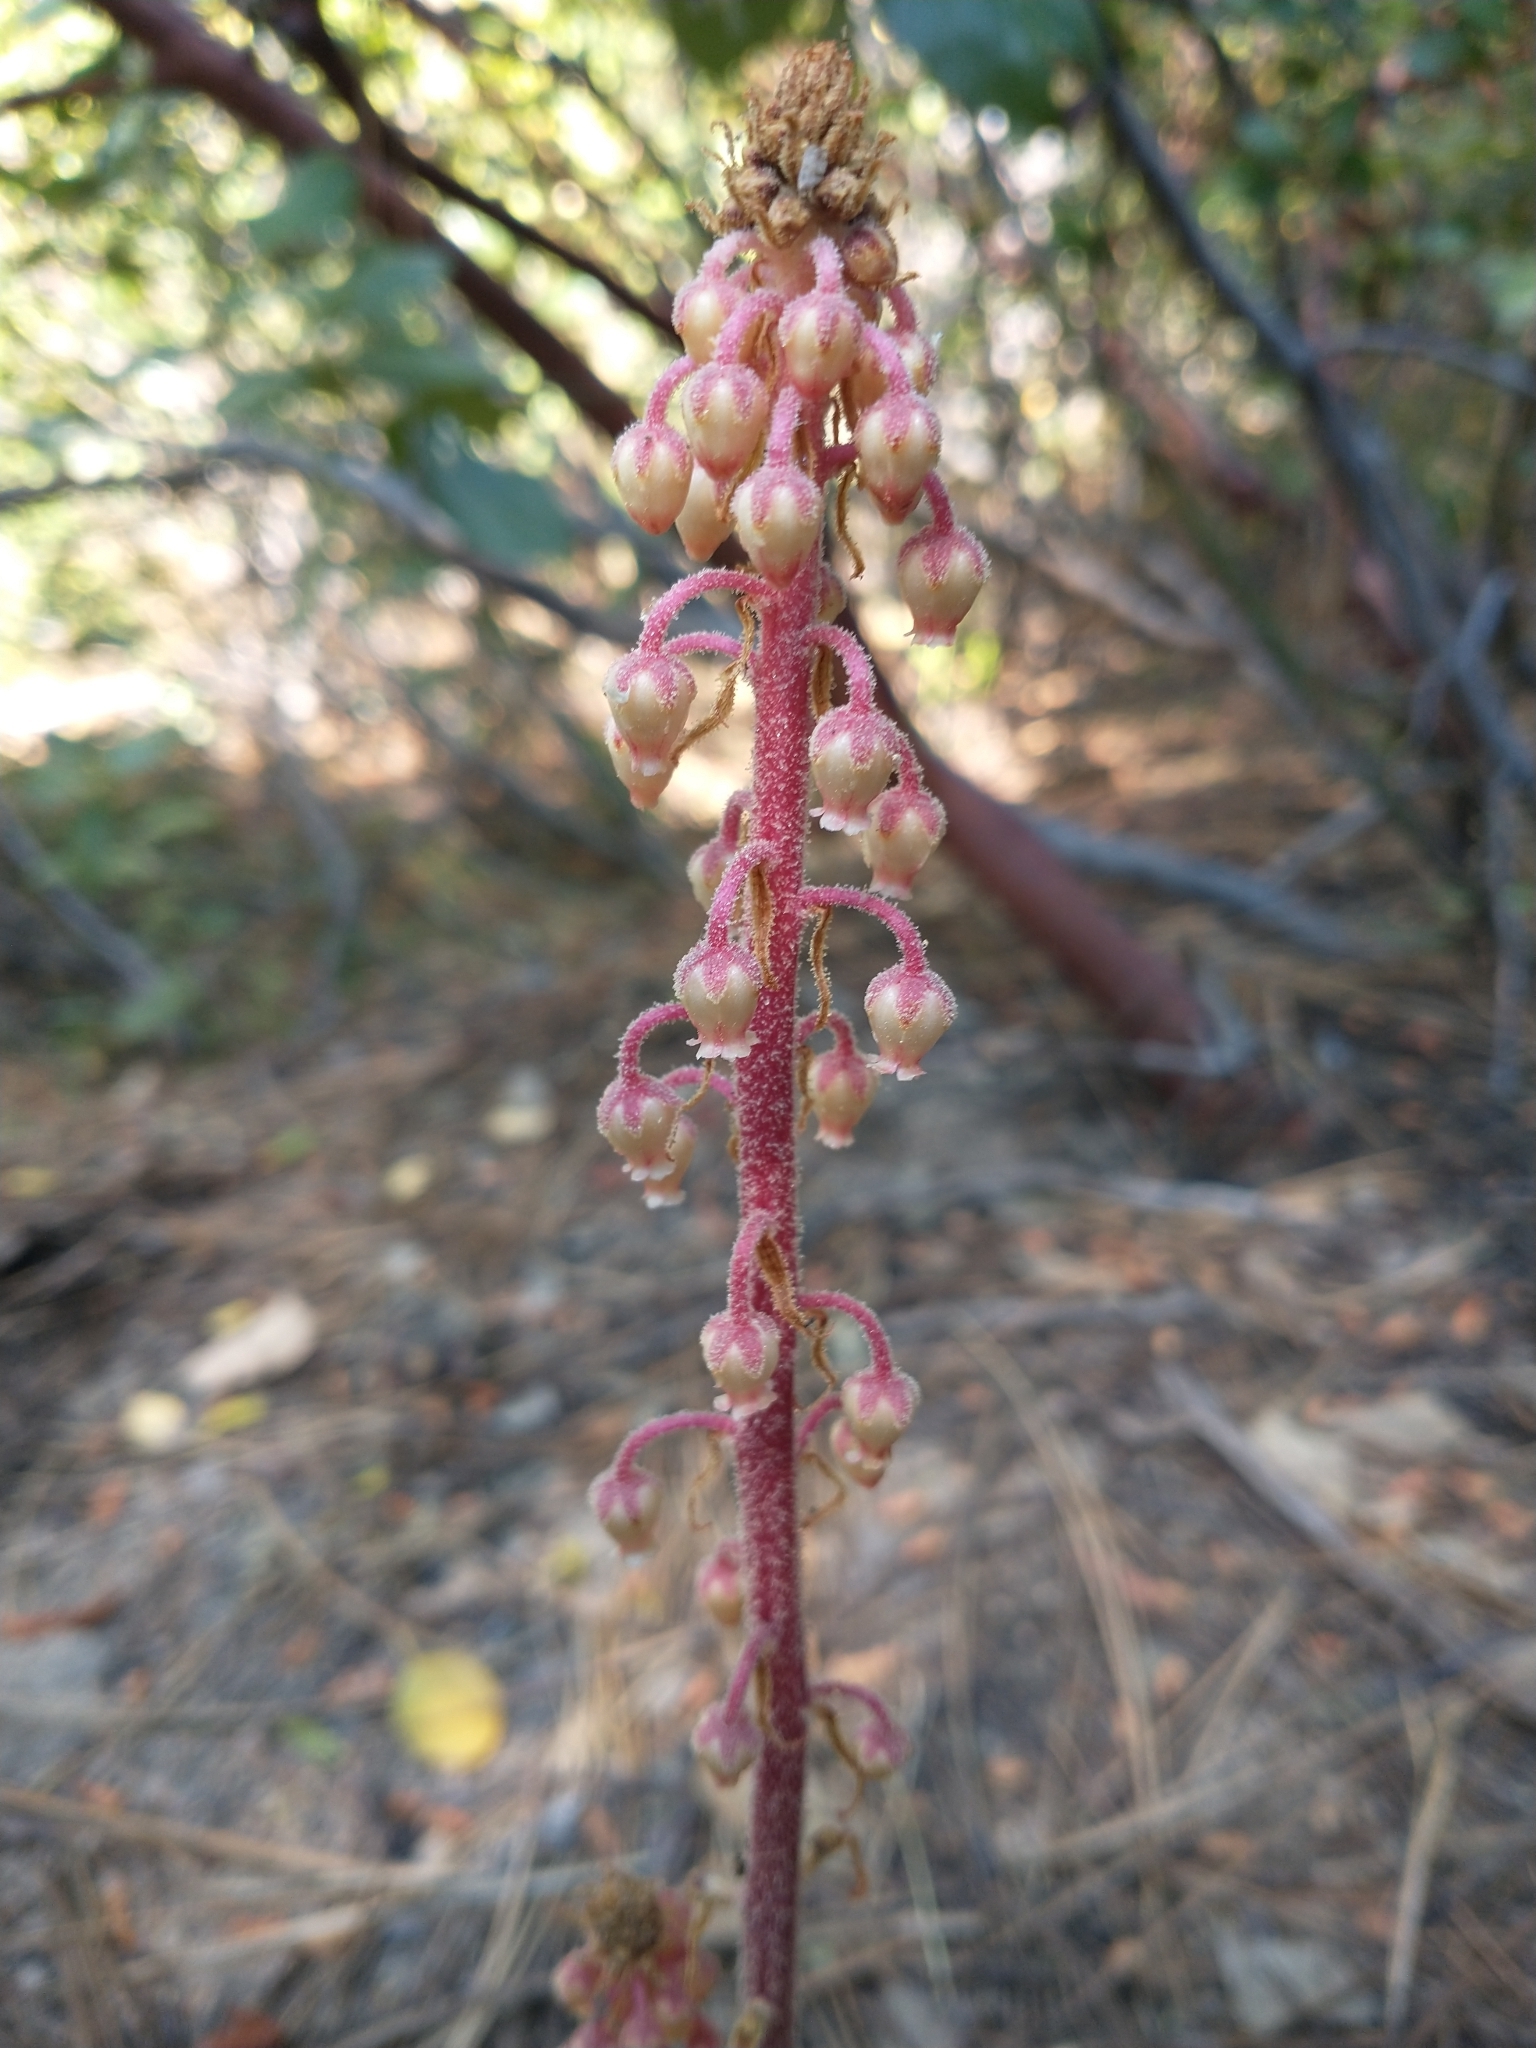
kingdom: Plantae
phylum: Tracheophyta
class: Magnoliopsida
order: Ericales
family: Ericaceae
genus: Pterospora
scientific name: Pterospora andromedea
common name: Giant bird's-nest
